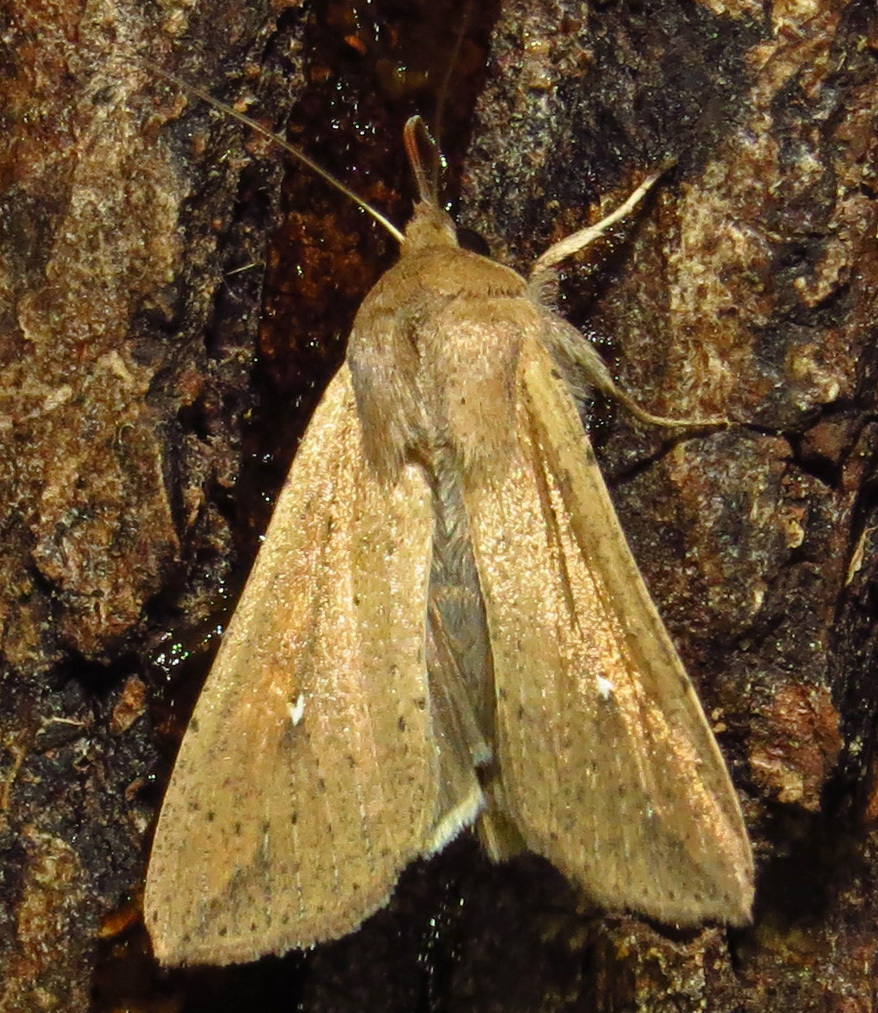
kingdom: Animalia
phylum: Arthropoda
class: Insecta
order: Lepidoptera
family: Noctuidae
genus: Mythimna
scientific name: Mythimna unipuncta
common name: White-speck
